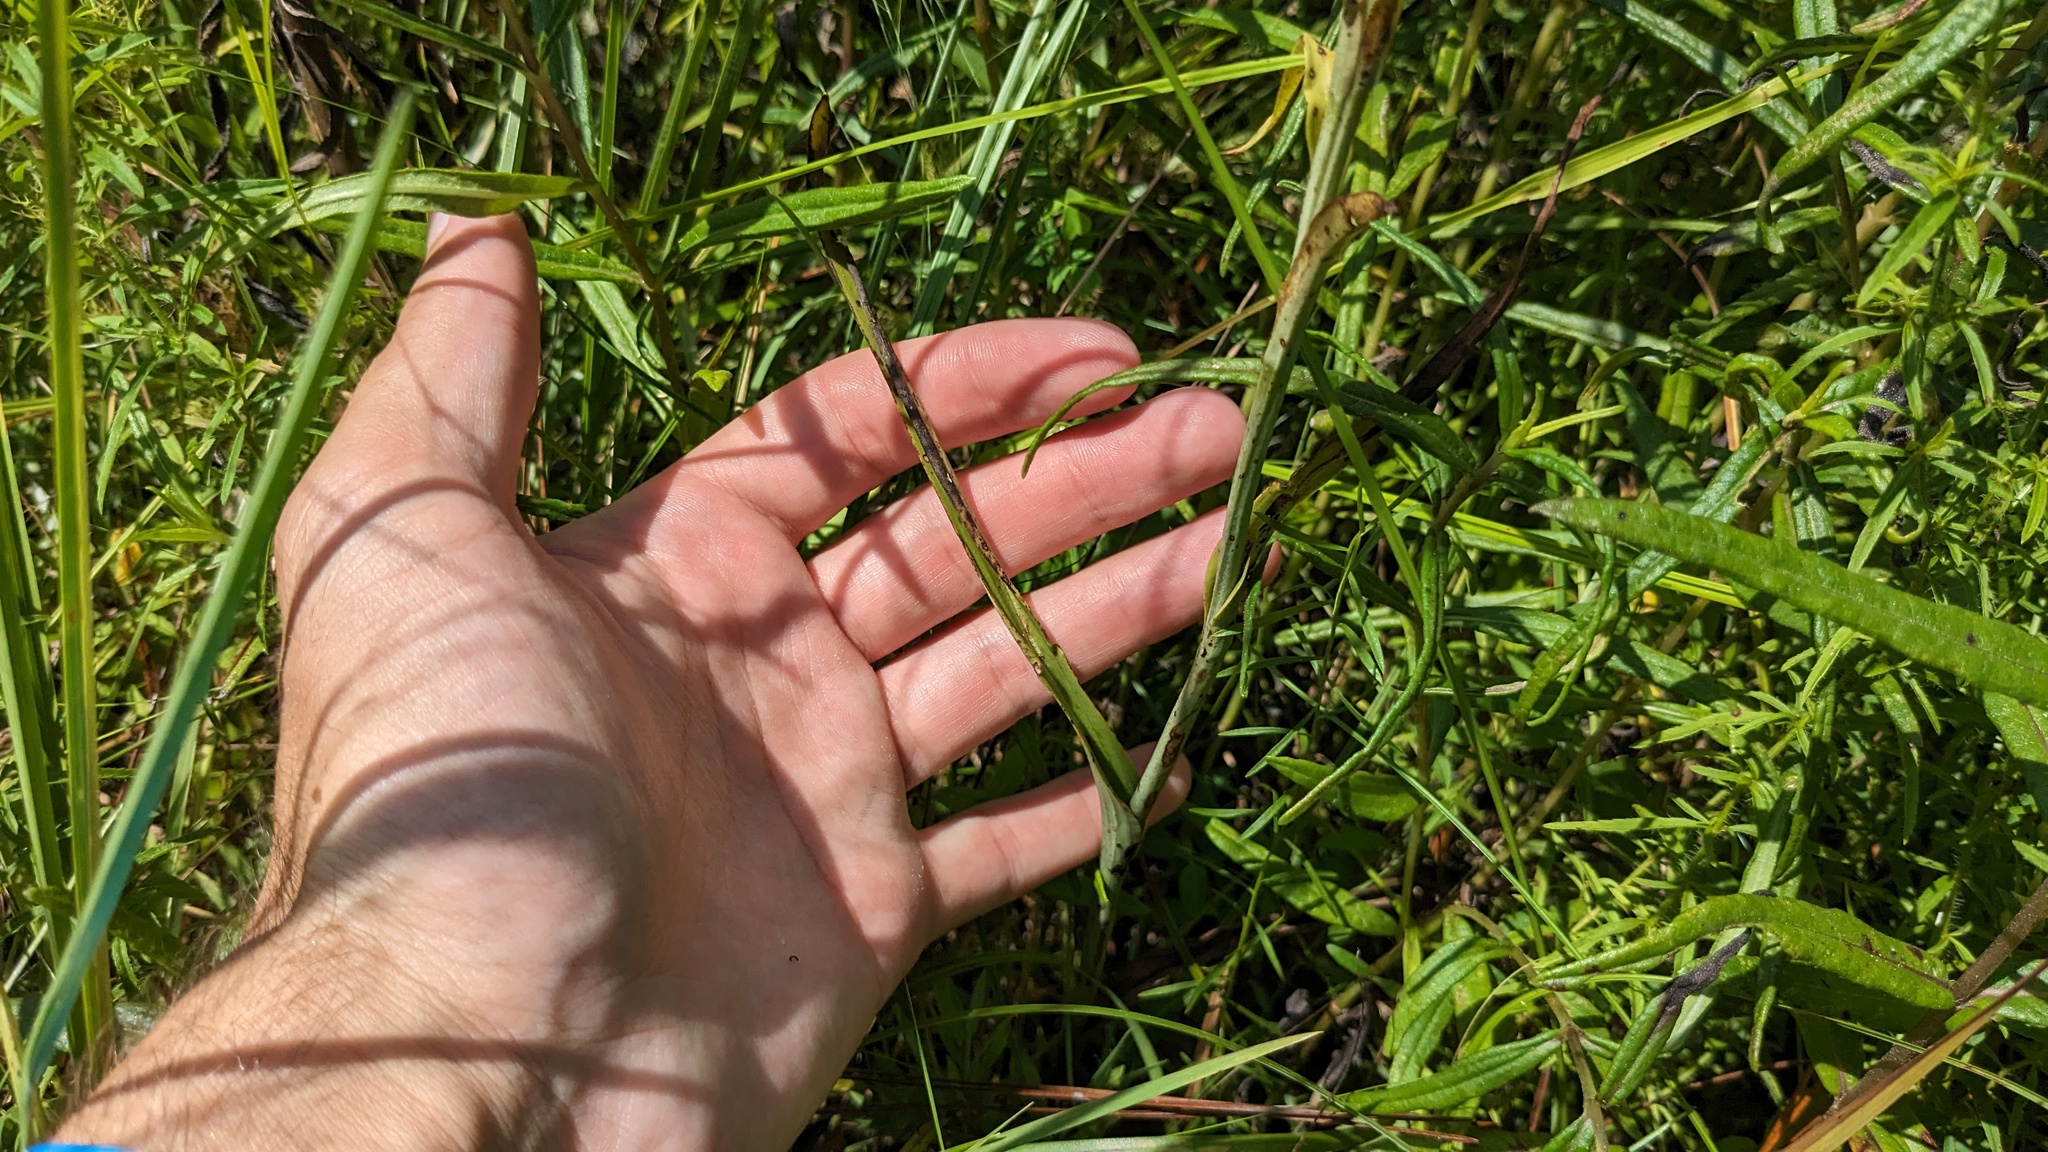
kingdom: Plantae
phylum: Tracheophyta
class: Liliopsida
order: Asparagales
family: Orchidaceae
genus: Platanthera
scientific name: Platanthera chapmanii
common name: Chapman’s fringed orchid
